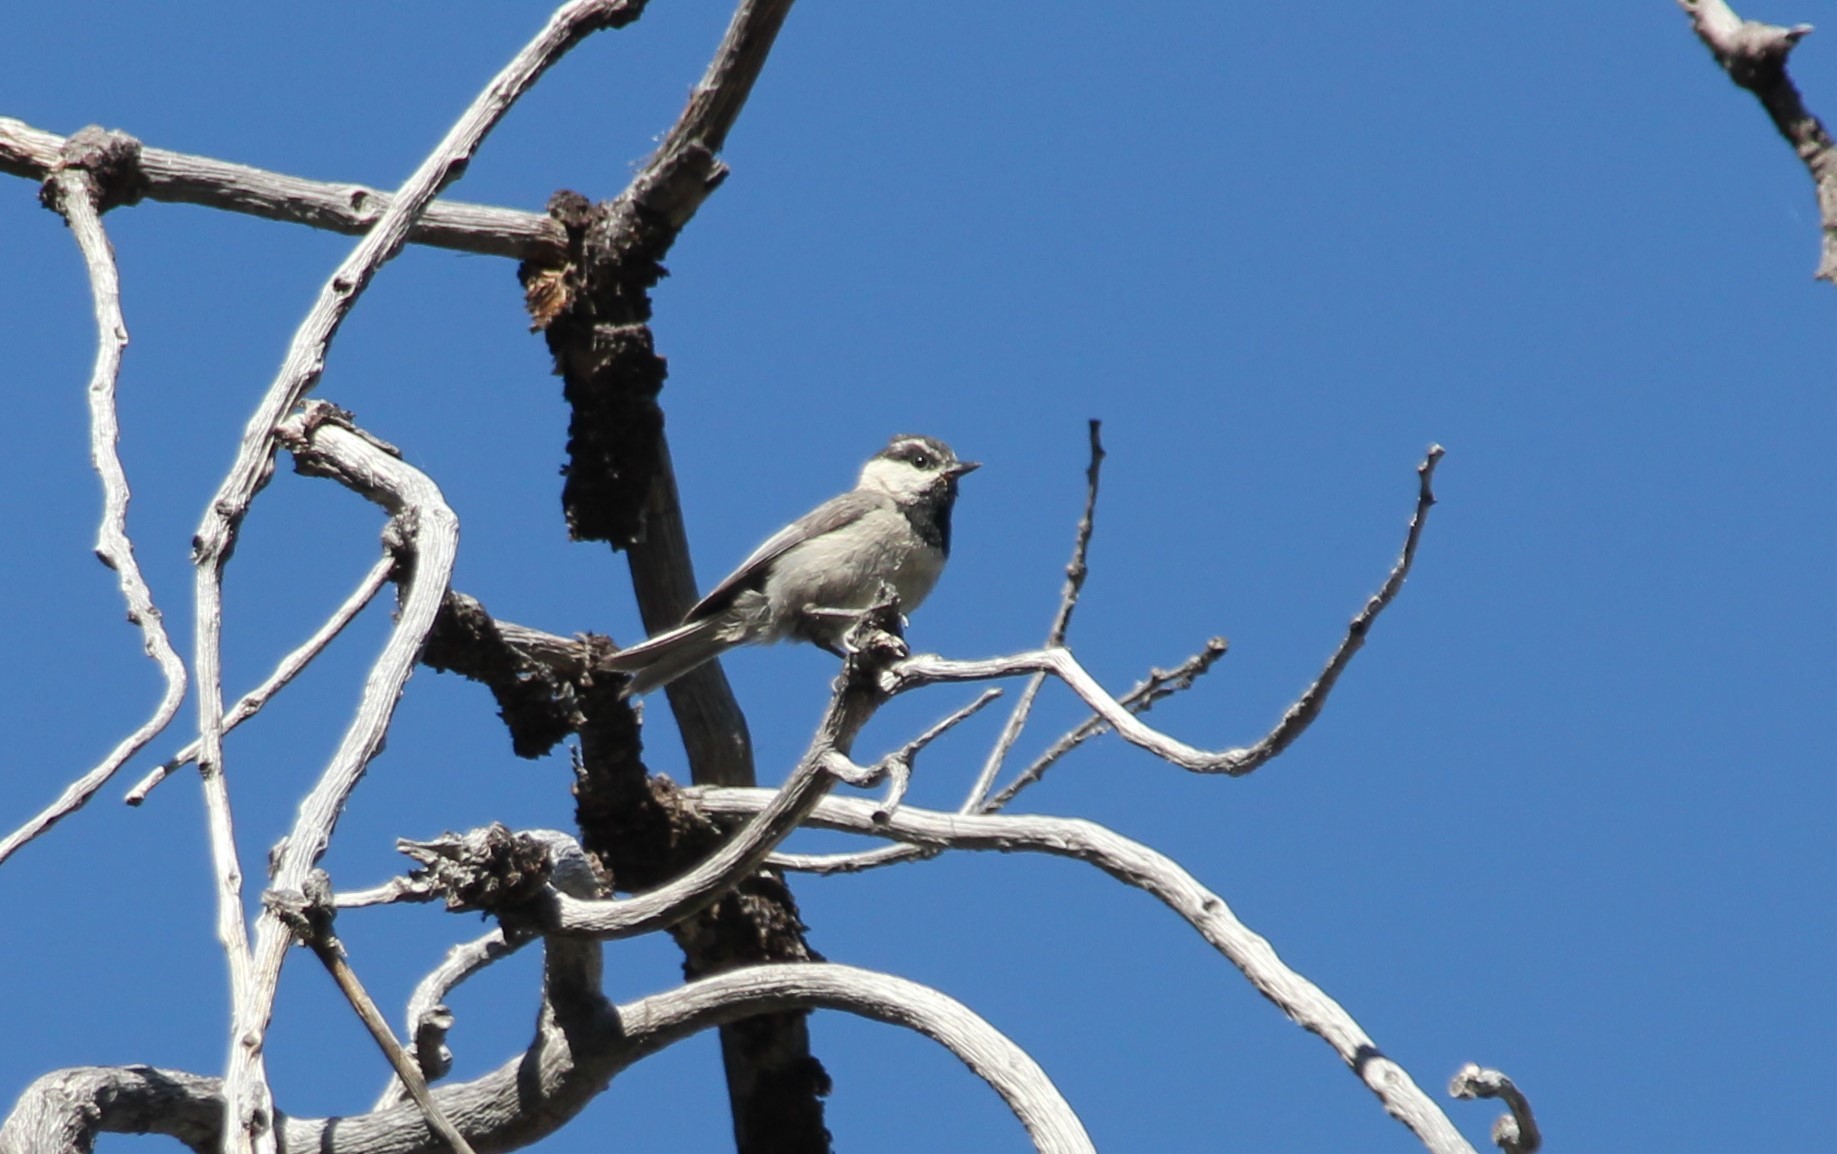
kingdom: Animalia
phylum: Chordata
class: Aves
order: Passeriformes
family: Paridae
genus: Poecile
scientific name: Poecile gambeli
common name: Mountain chickadee
